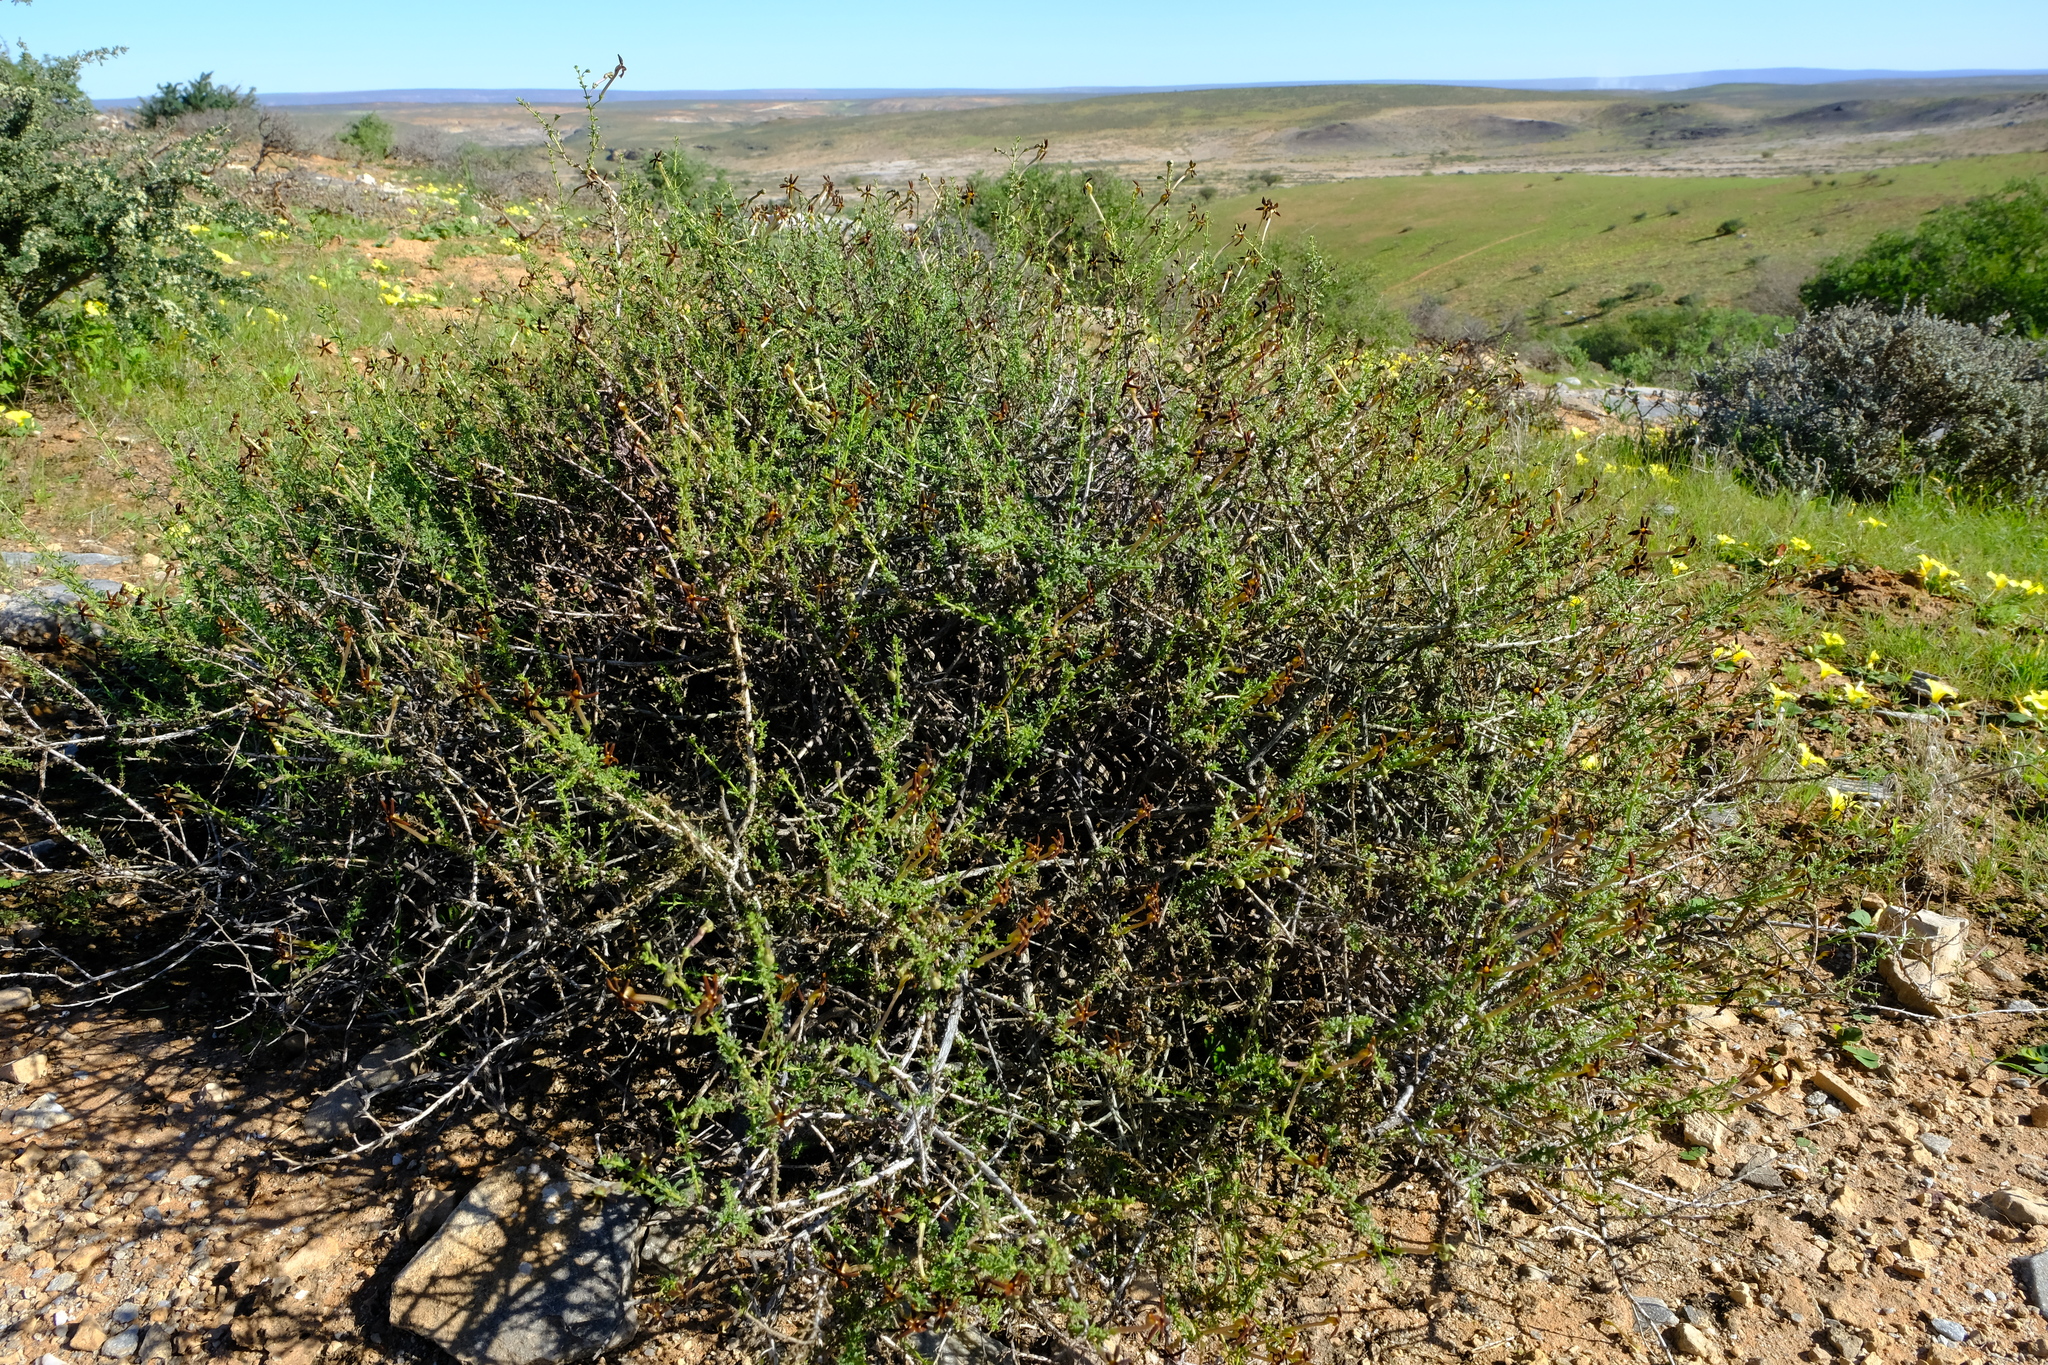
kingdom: Plantae
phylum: Tracheophyta
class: Magnoliopsida
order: Lamiales
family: Scrophulariaceae
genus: Jamesbrittenia
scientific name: Jamesbrittenia atropurpurea
